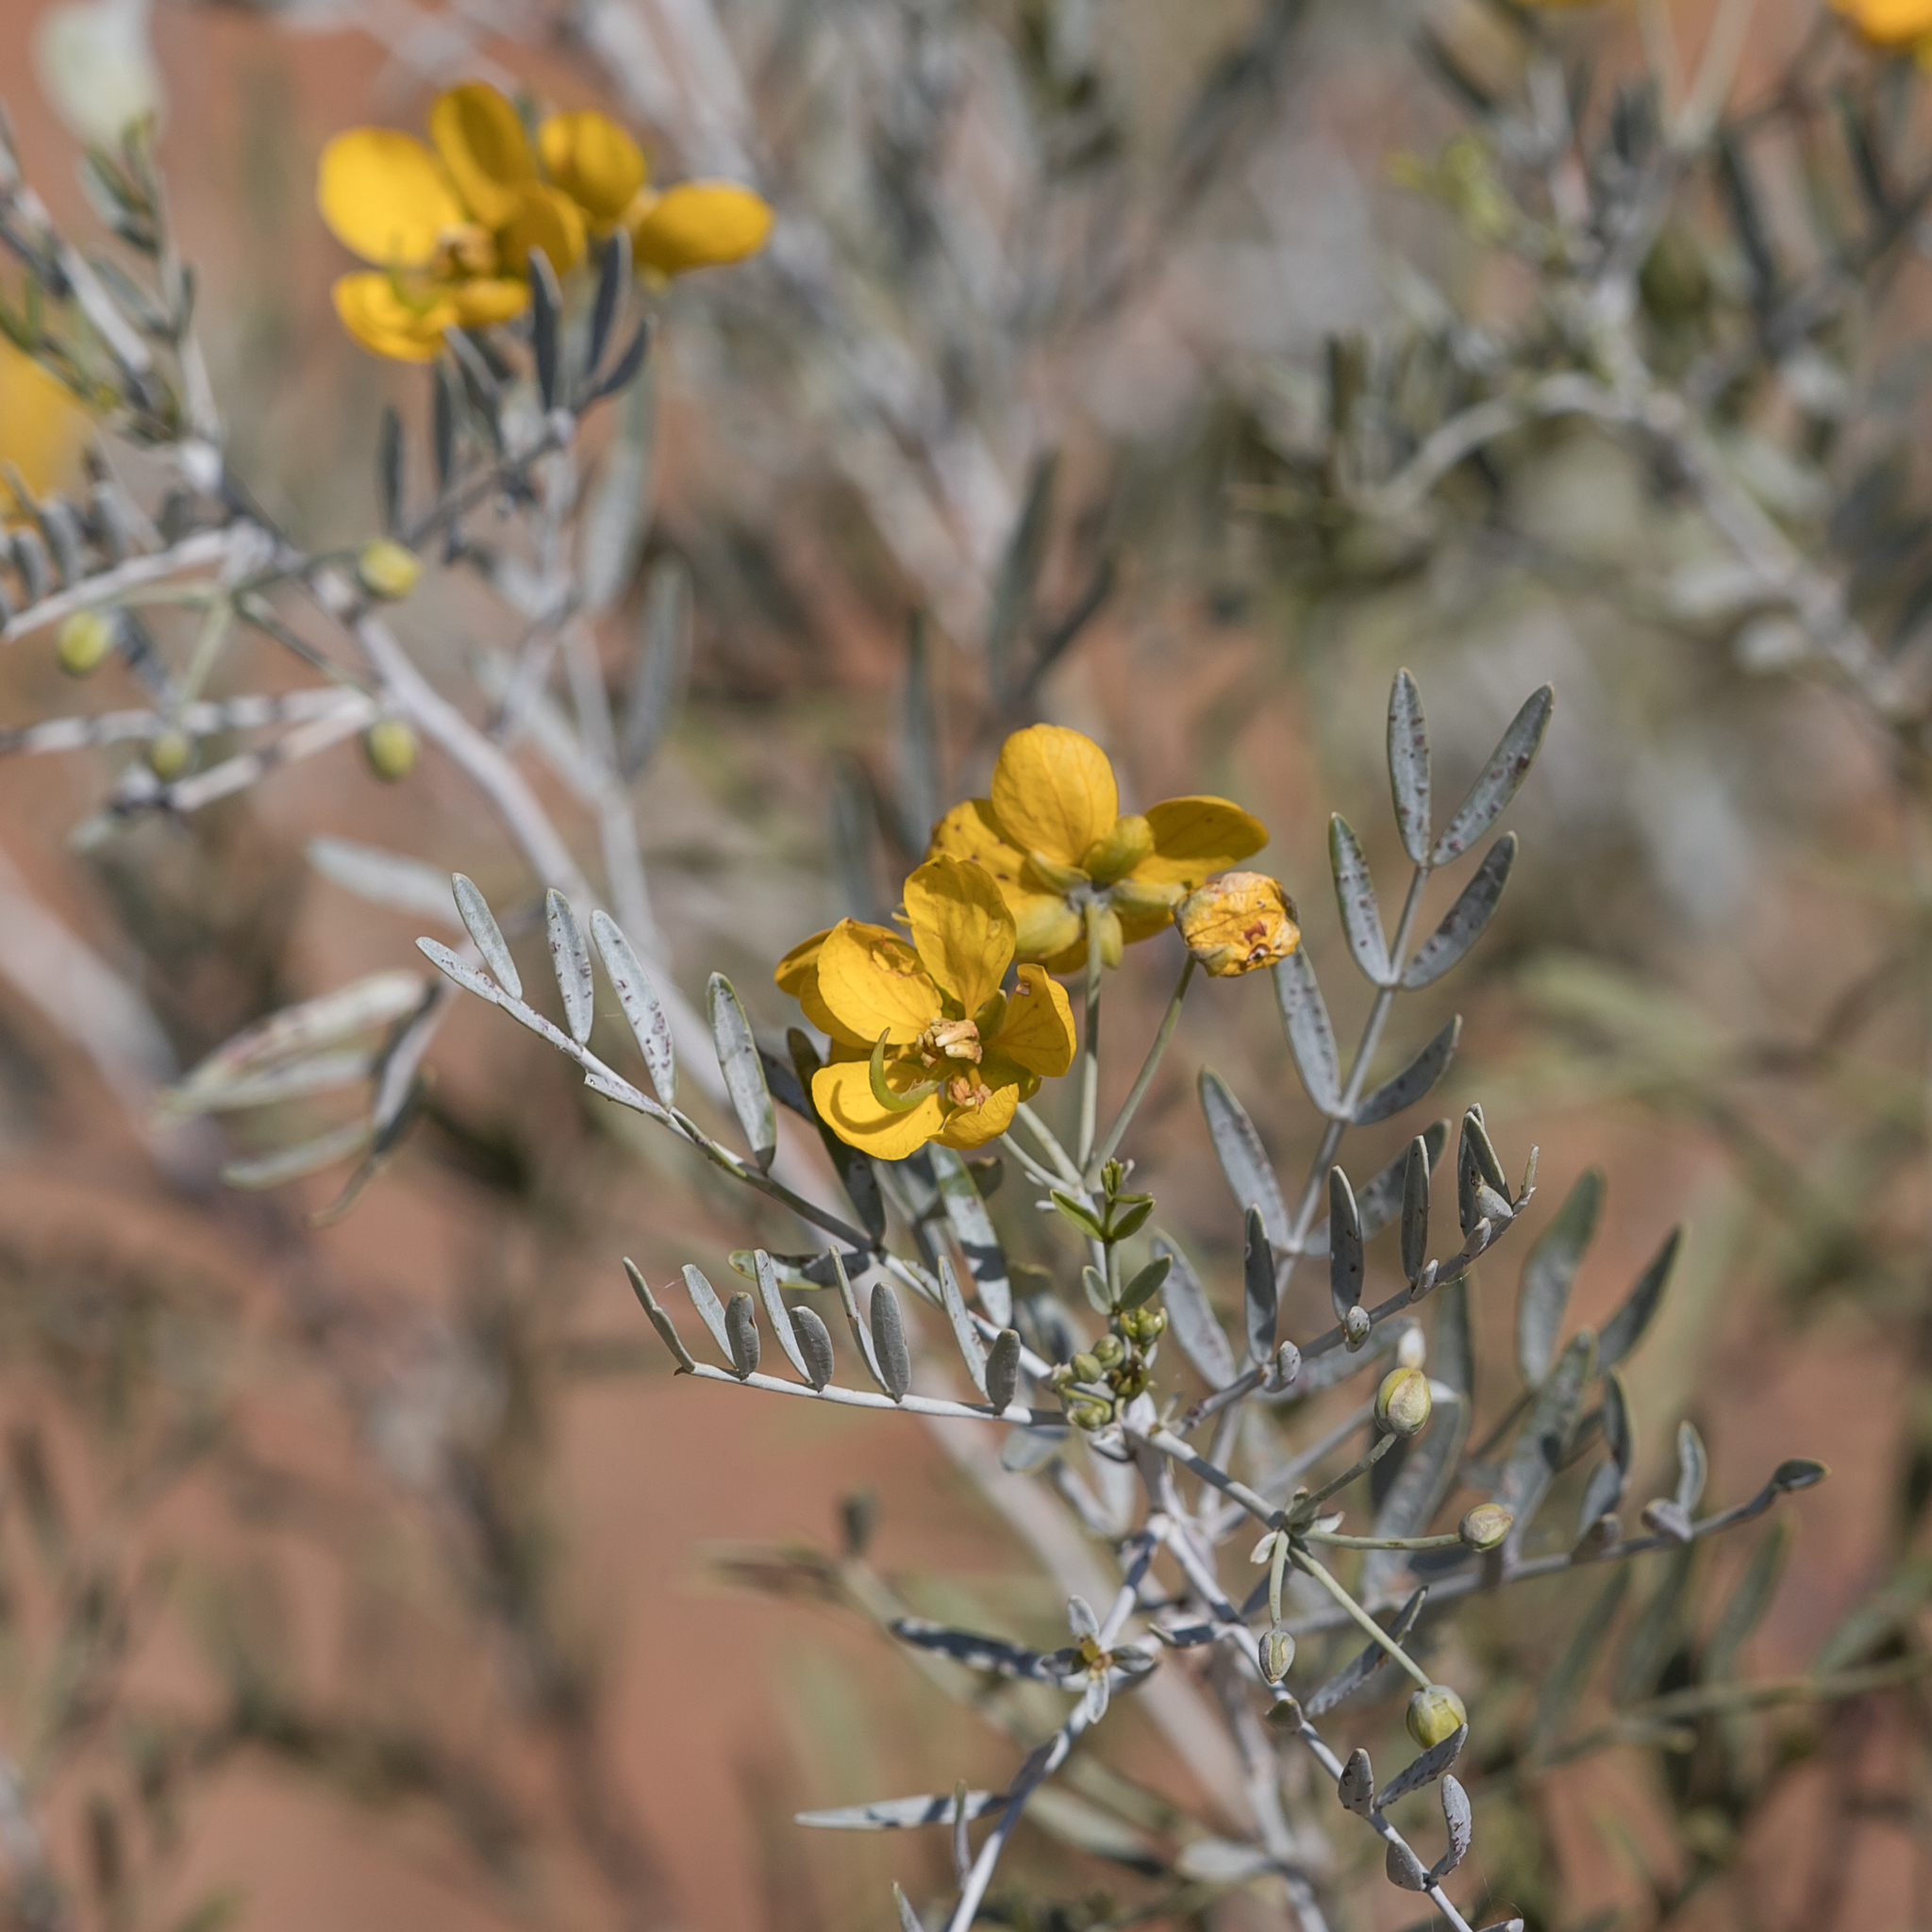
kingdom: Plantae
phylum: Tracheophyta
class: Magnoliopsida
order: Fabales
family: Fabaceae
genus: Senna
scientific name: Senna glutinosa
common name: Green acacia
